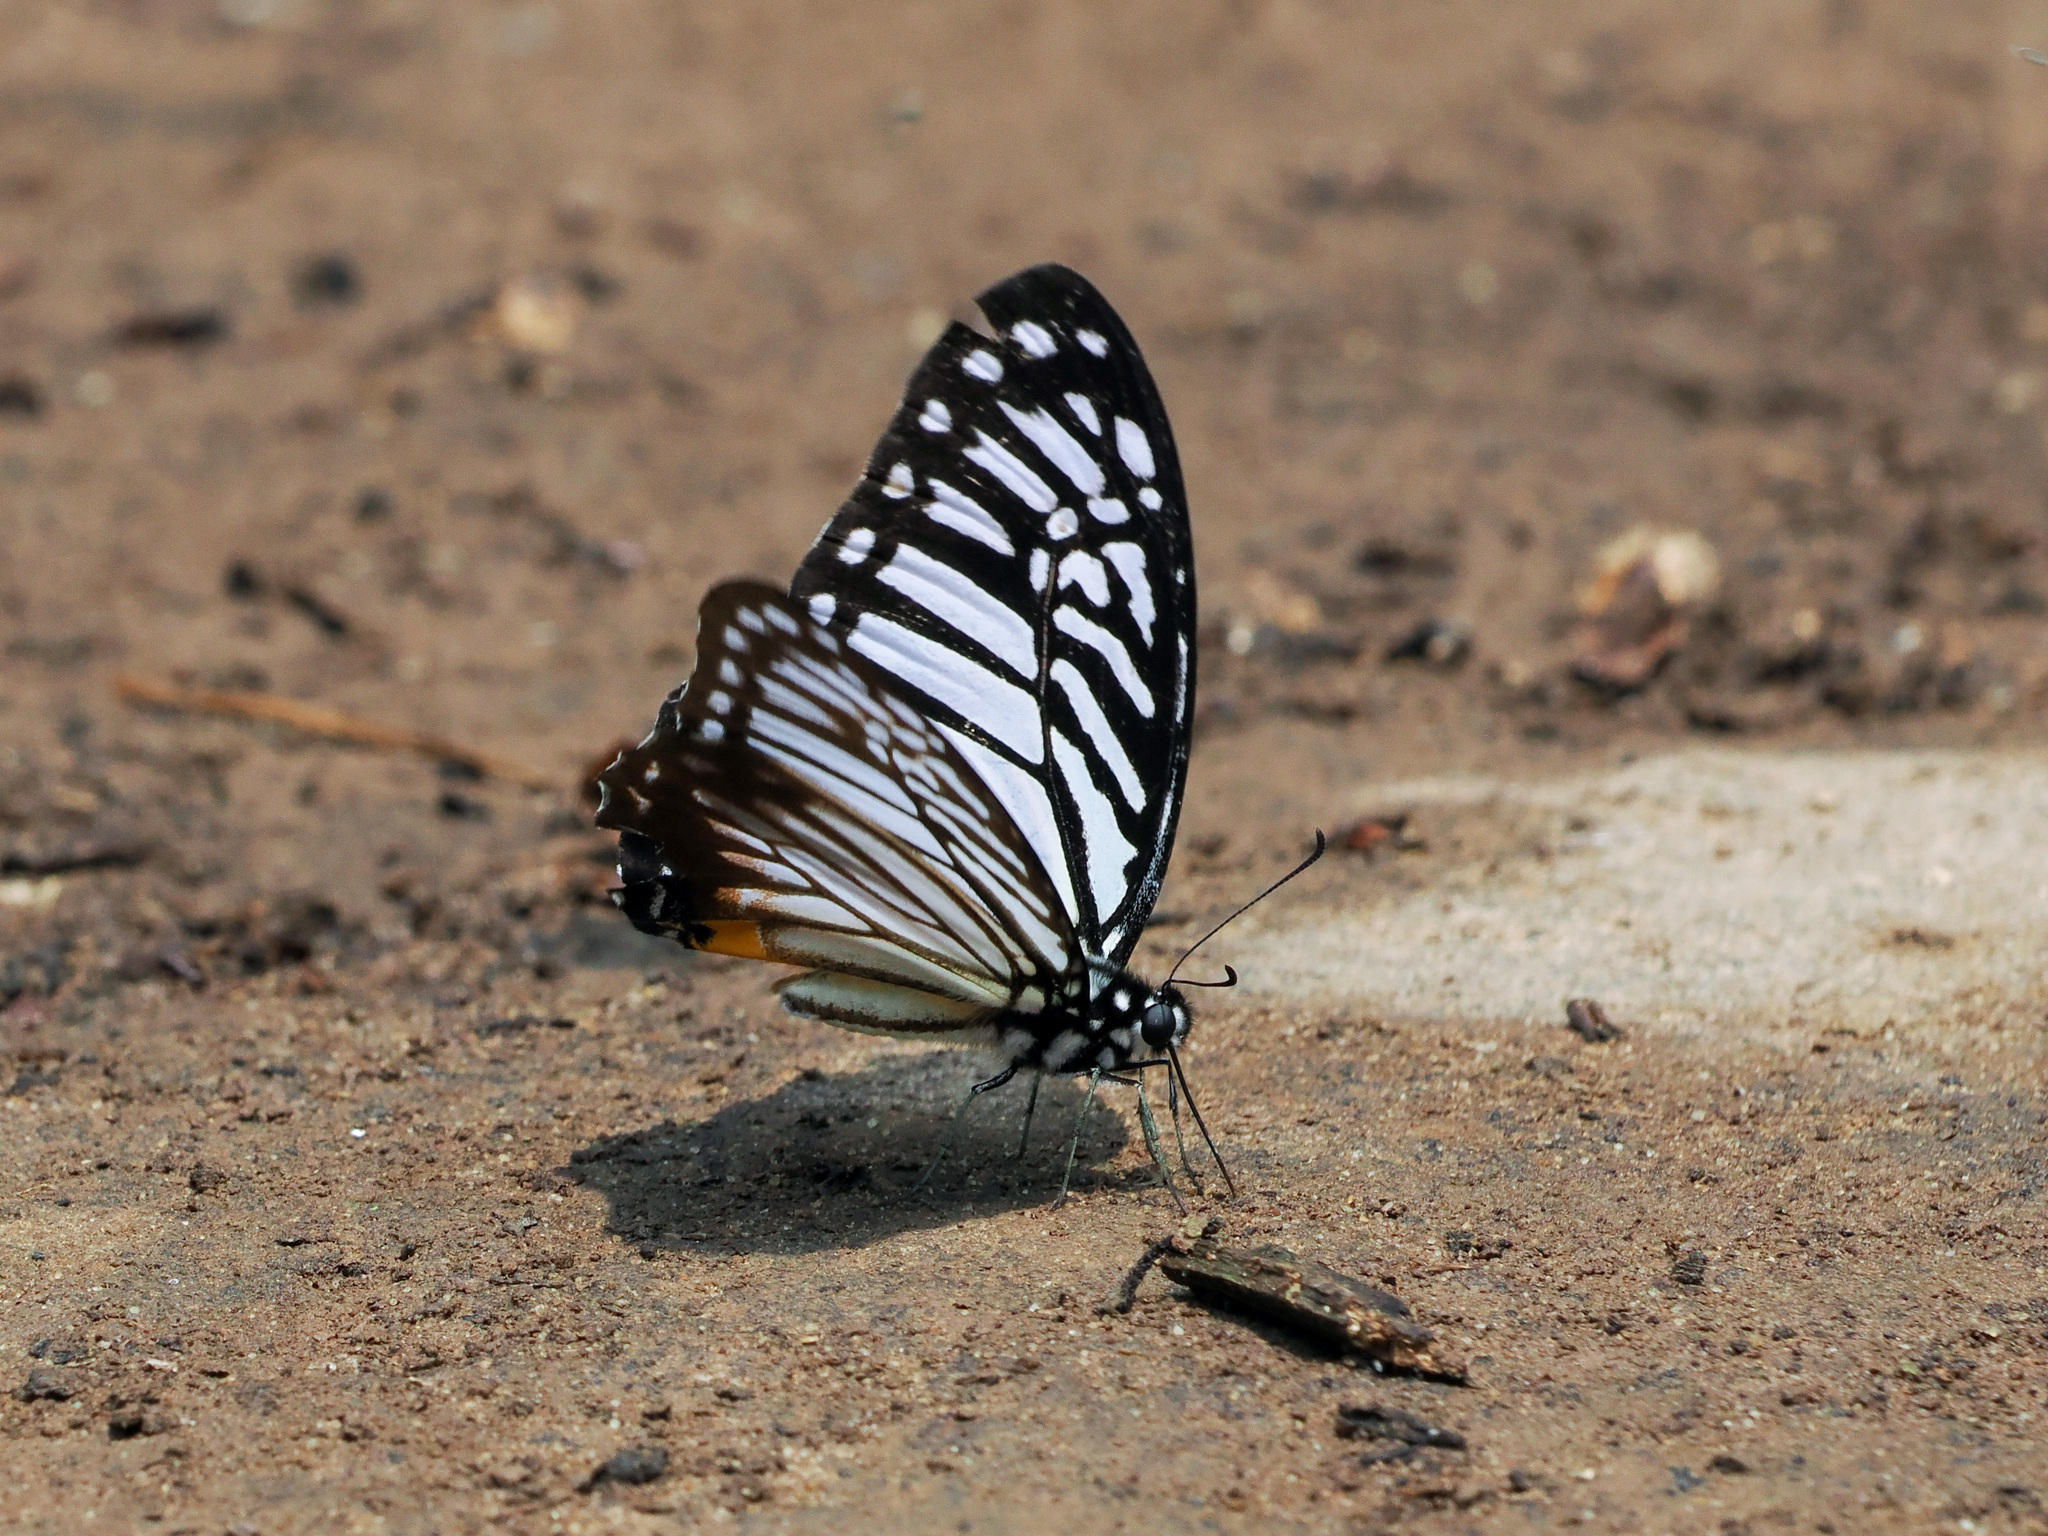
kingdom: Animalia
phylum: Arthropoda
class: Insecta
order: Lepidoptera
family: Papilionidae
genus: Graphium
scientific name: Graphium xenocles
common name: Great zebra
